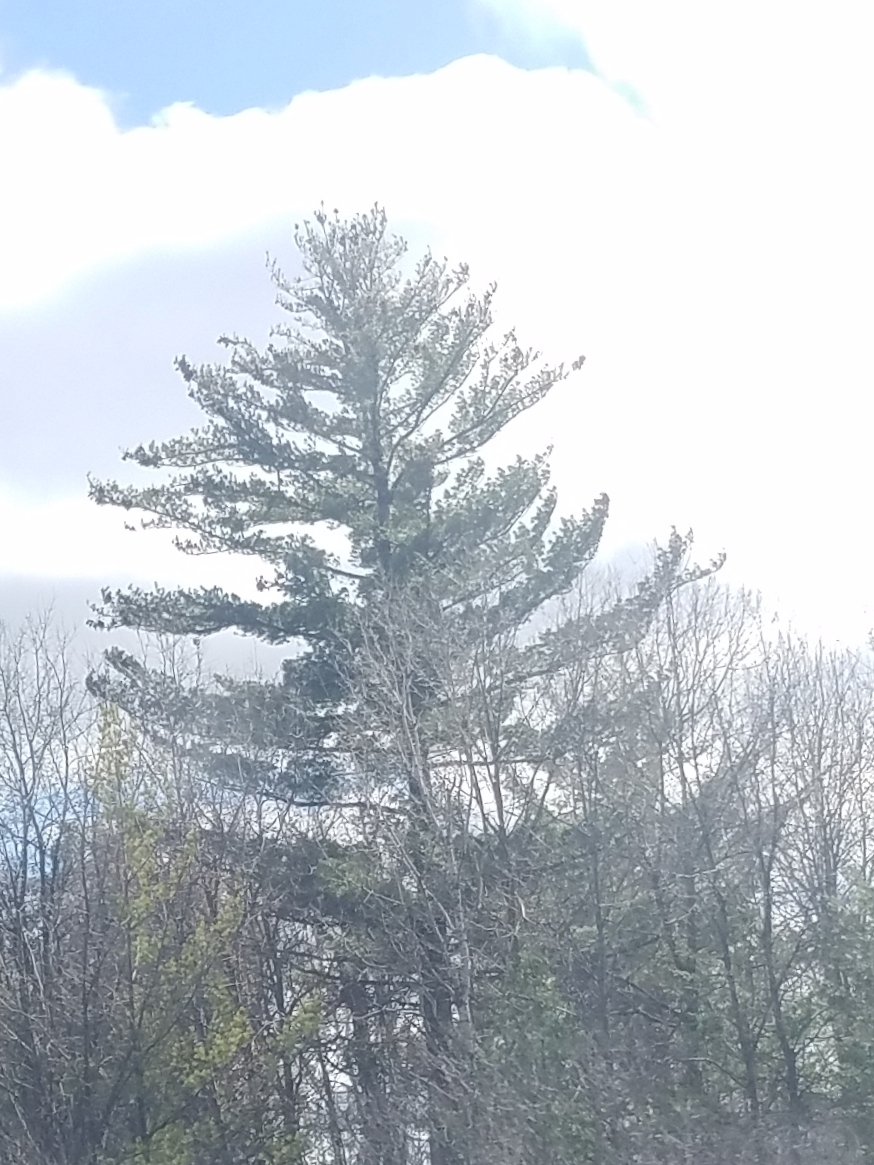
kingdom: Plantae
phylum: Tracheophyta
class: Pinopsida
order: Pinales
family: Pinaceae
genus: Pinus
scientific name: Pinus strobus
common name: Weymouth pine
